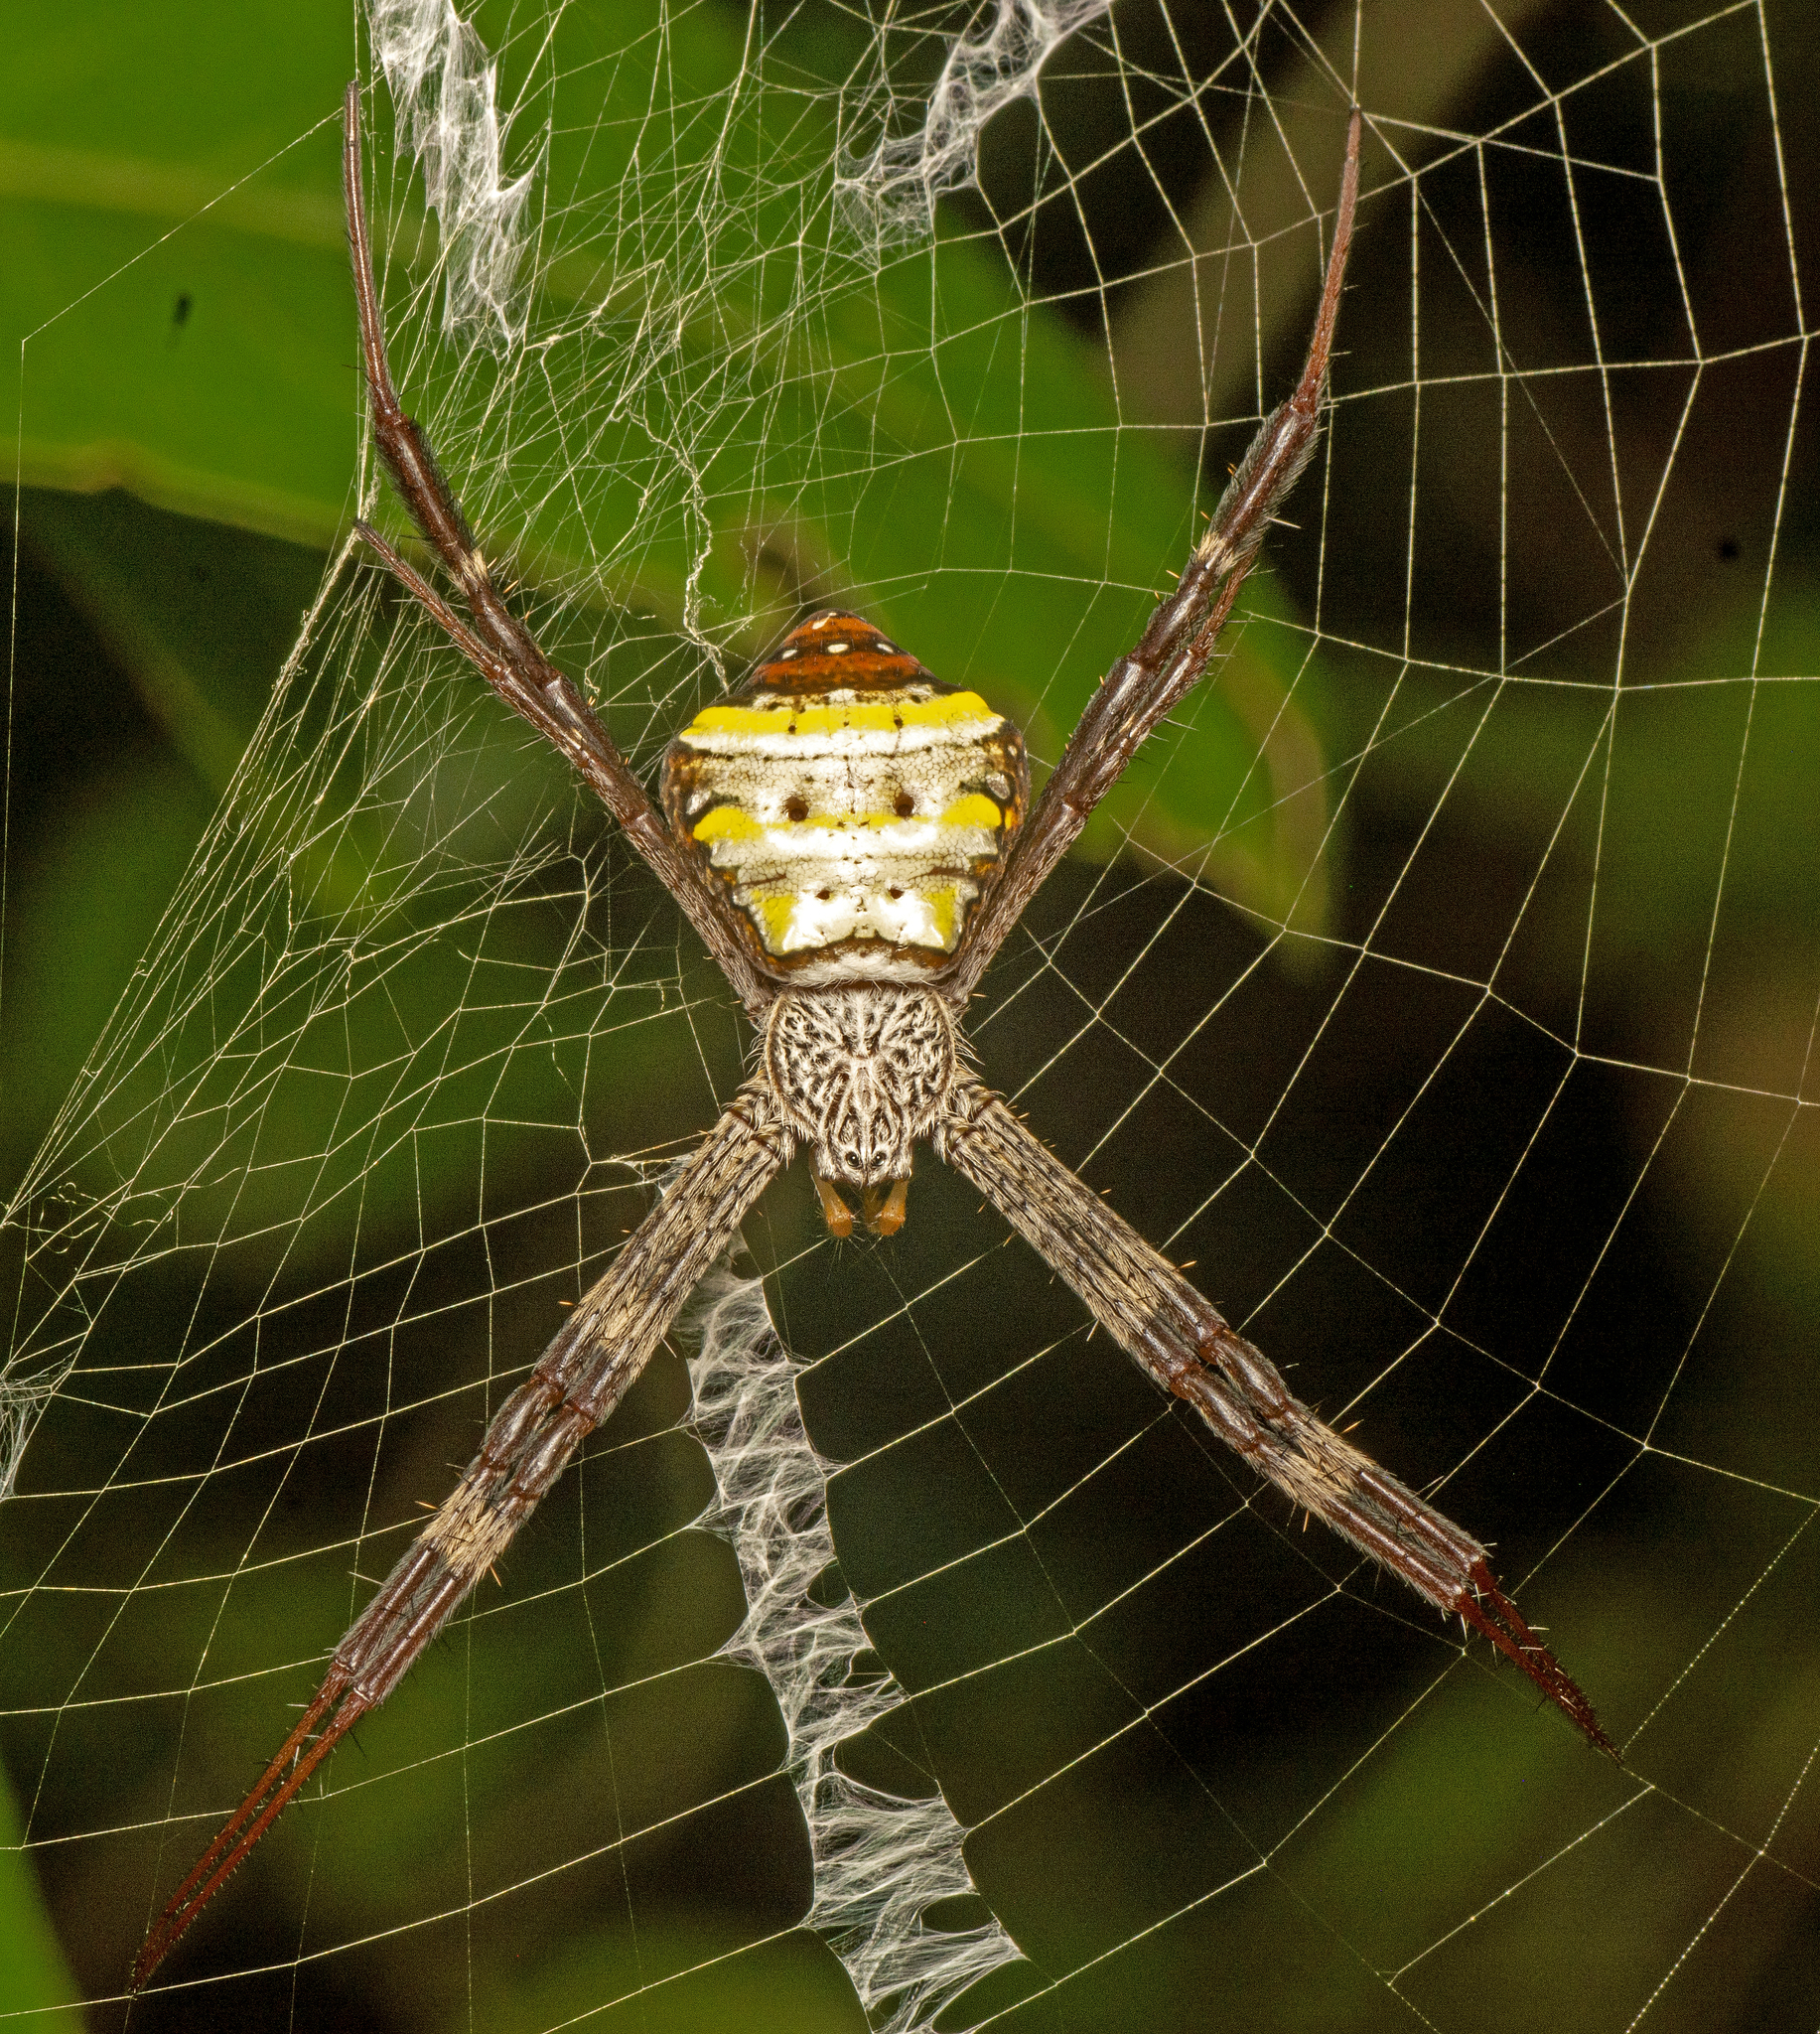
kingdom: Animalia
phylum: Arthropoda
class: Arachnida
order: Araneae
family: Araneidae
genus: Argiope
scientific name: Argiope aetherea
